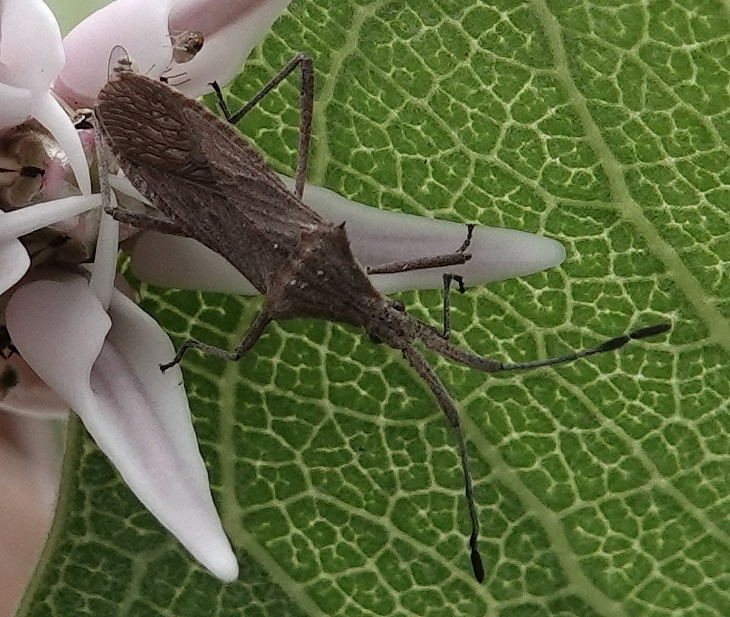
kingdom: Animalia
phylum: Arthropoda
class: Insecta
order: Hemiptera
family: Coreidae
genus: Chariesterus
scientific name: Chariesterus antennator
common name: Flat horned coreid
